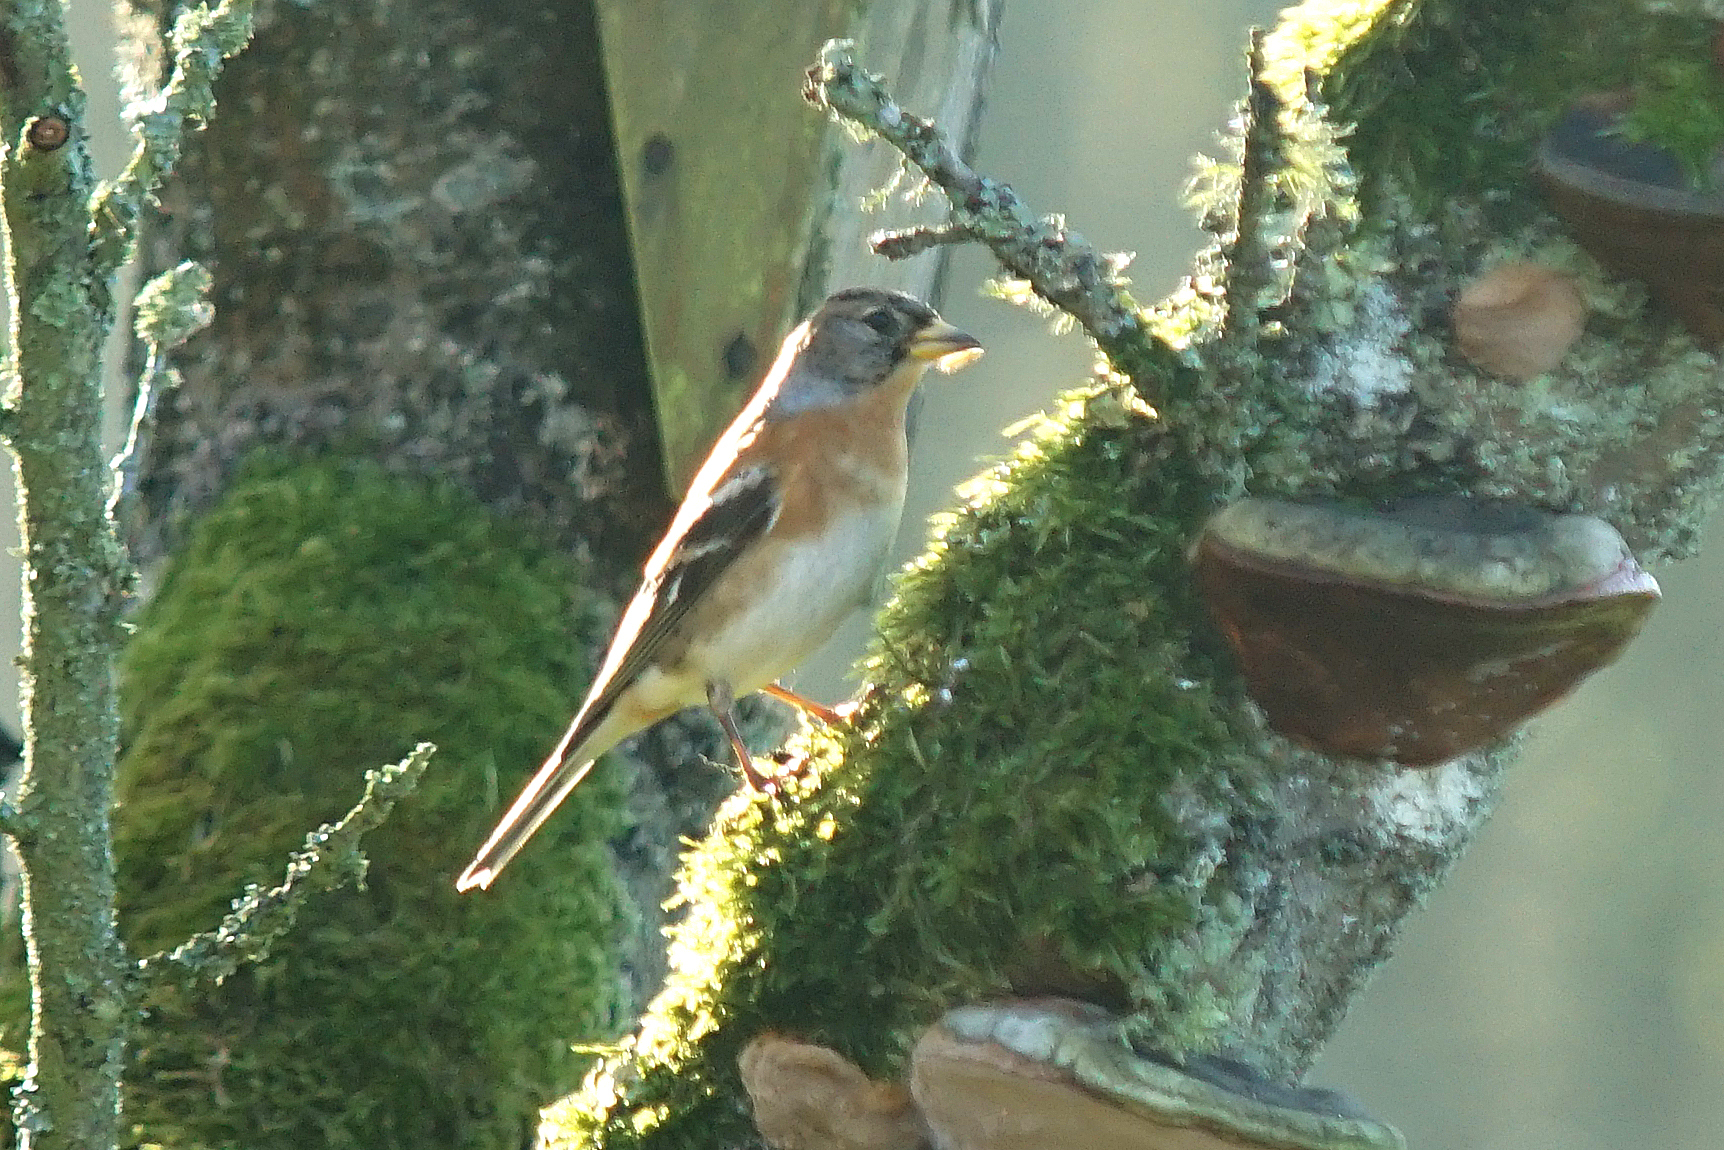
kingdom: Animalia
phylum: Chordata
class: Aves
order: Passeriformes
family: Fringillidae
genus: Fringilla
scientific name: Fringilla montifringilla
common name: Brambling
